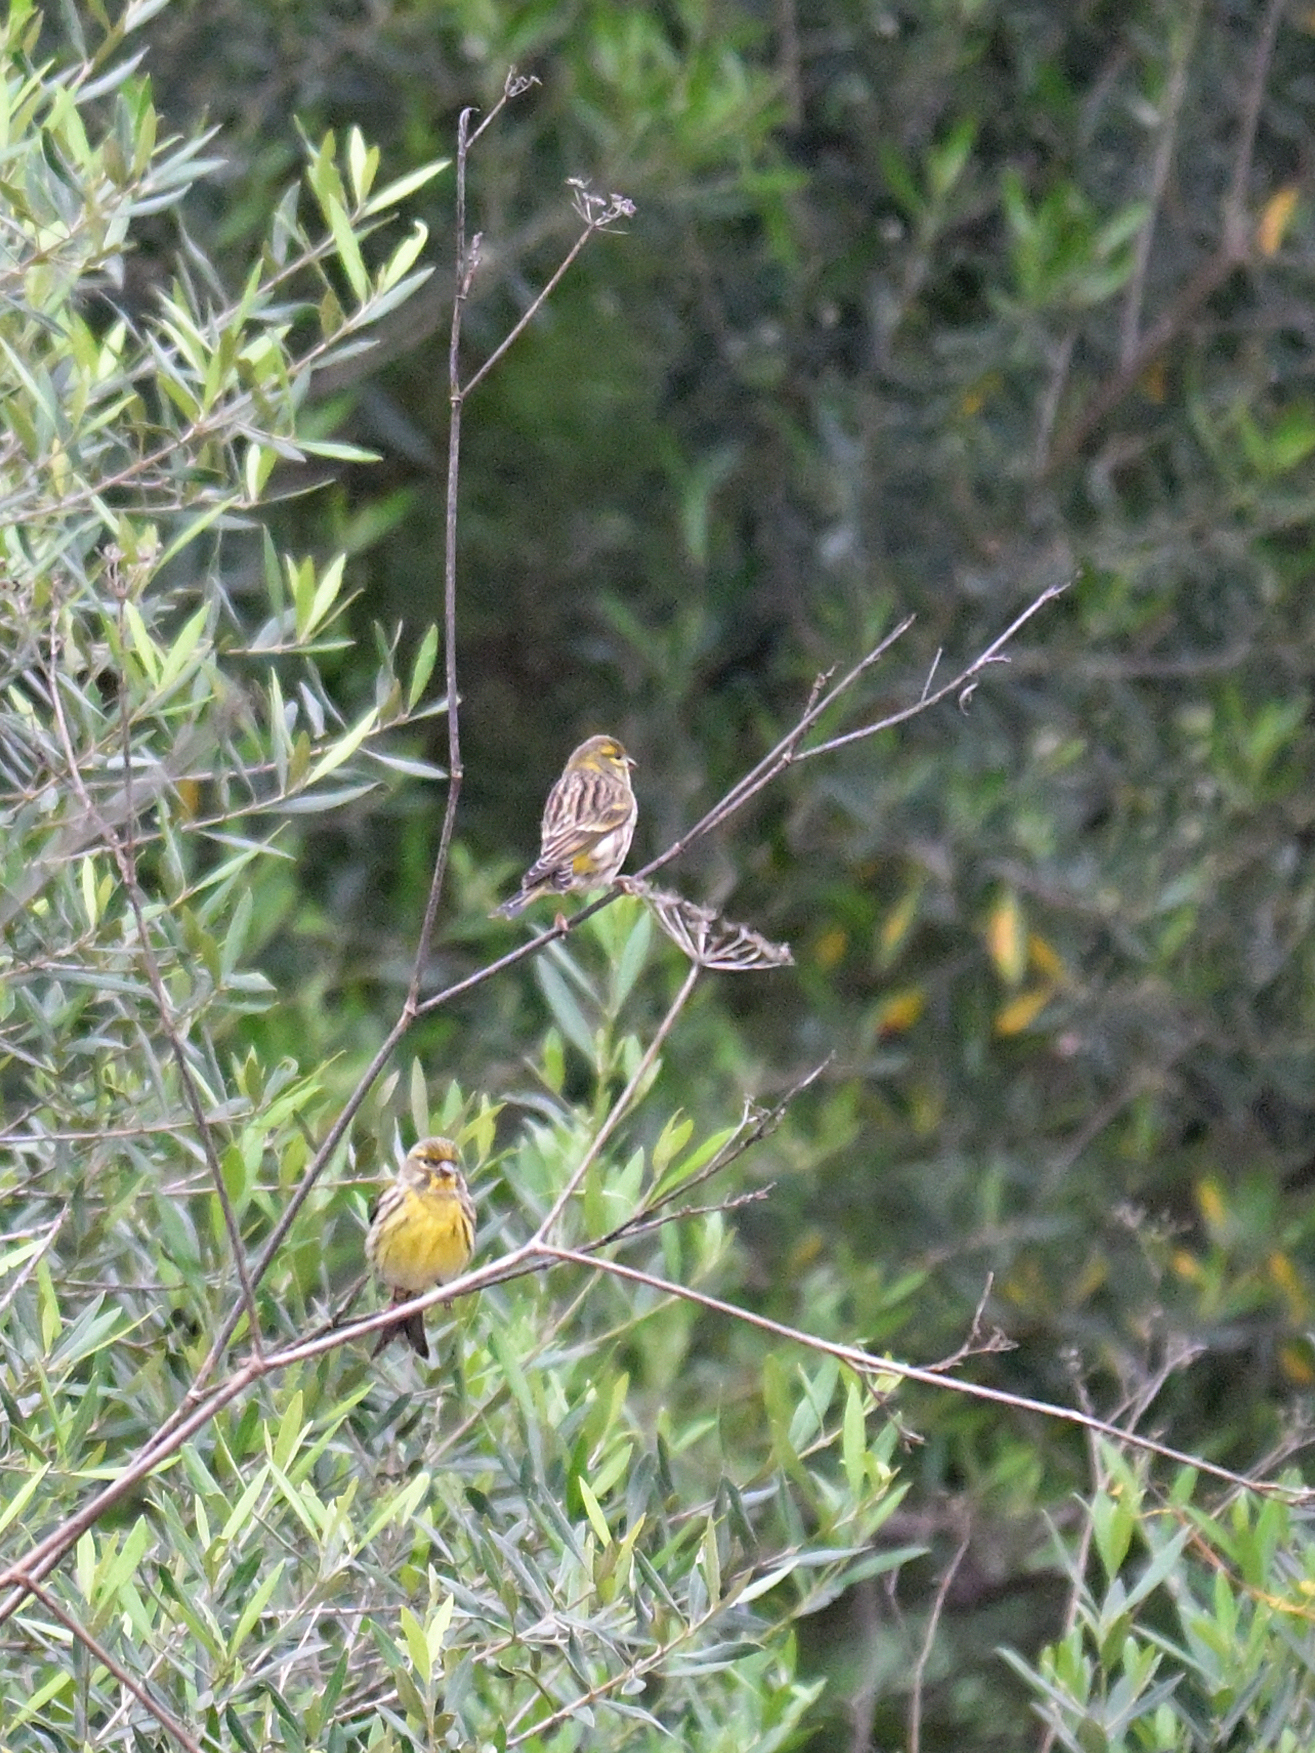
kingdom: Animalia
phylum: Chordata
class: Aves
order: Passeriformes
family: Fringillidae
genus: Serinus
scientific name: Serinus serinus
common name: European serin
